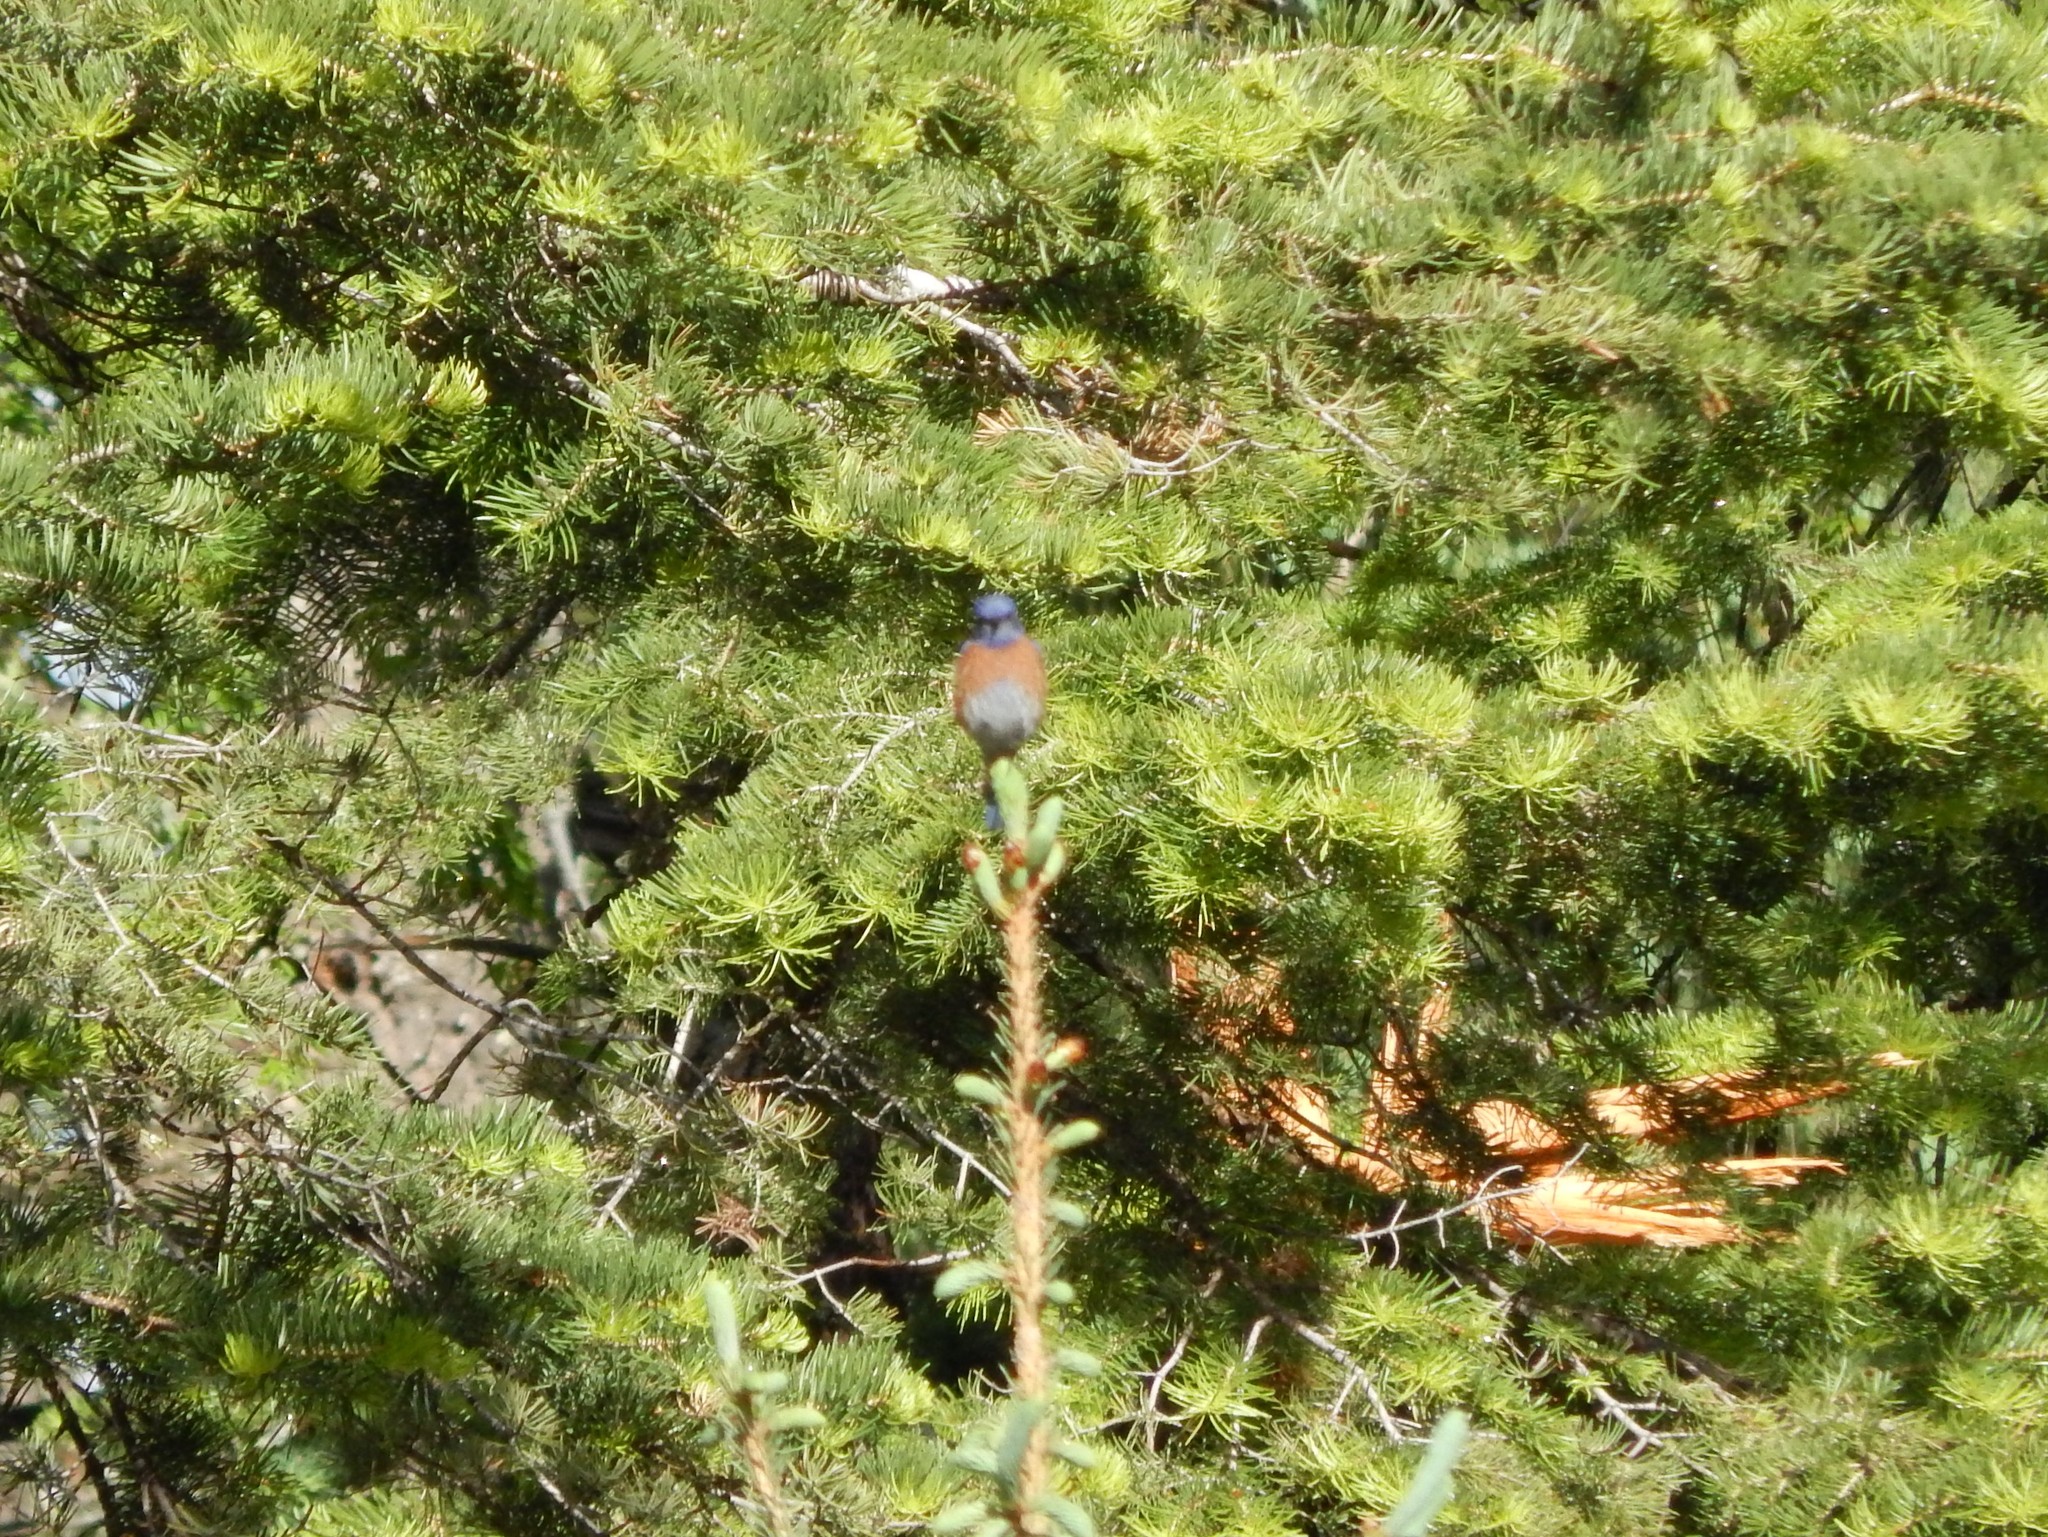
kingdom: Animalia
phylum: Chordata
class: Aves
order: Passeriformes
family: Turdidae
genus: Sialia
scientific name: Sialia mexicana
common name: Western bluebird
